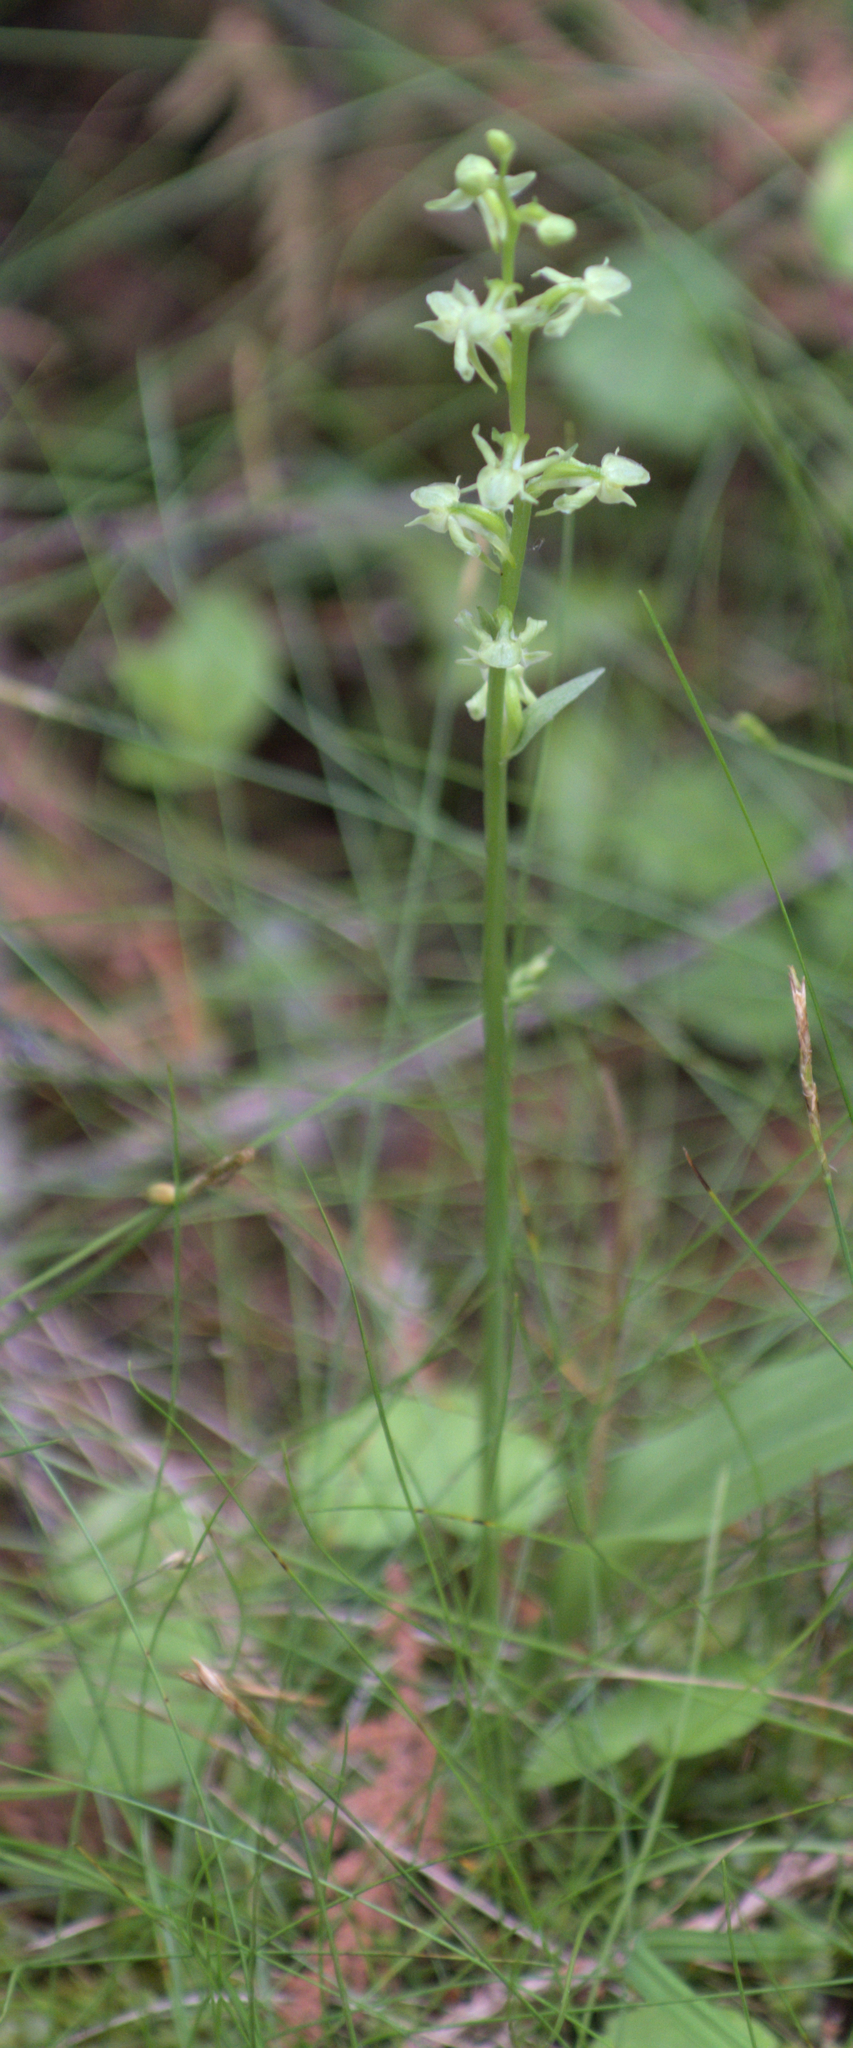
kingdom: Plantae
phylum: Tracheophyta
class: Liliopsida
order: Asparagales
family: Orchidaceae
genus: Platanthera
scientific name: Platanthera obtusata
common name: Blunt bog orchid
